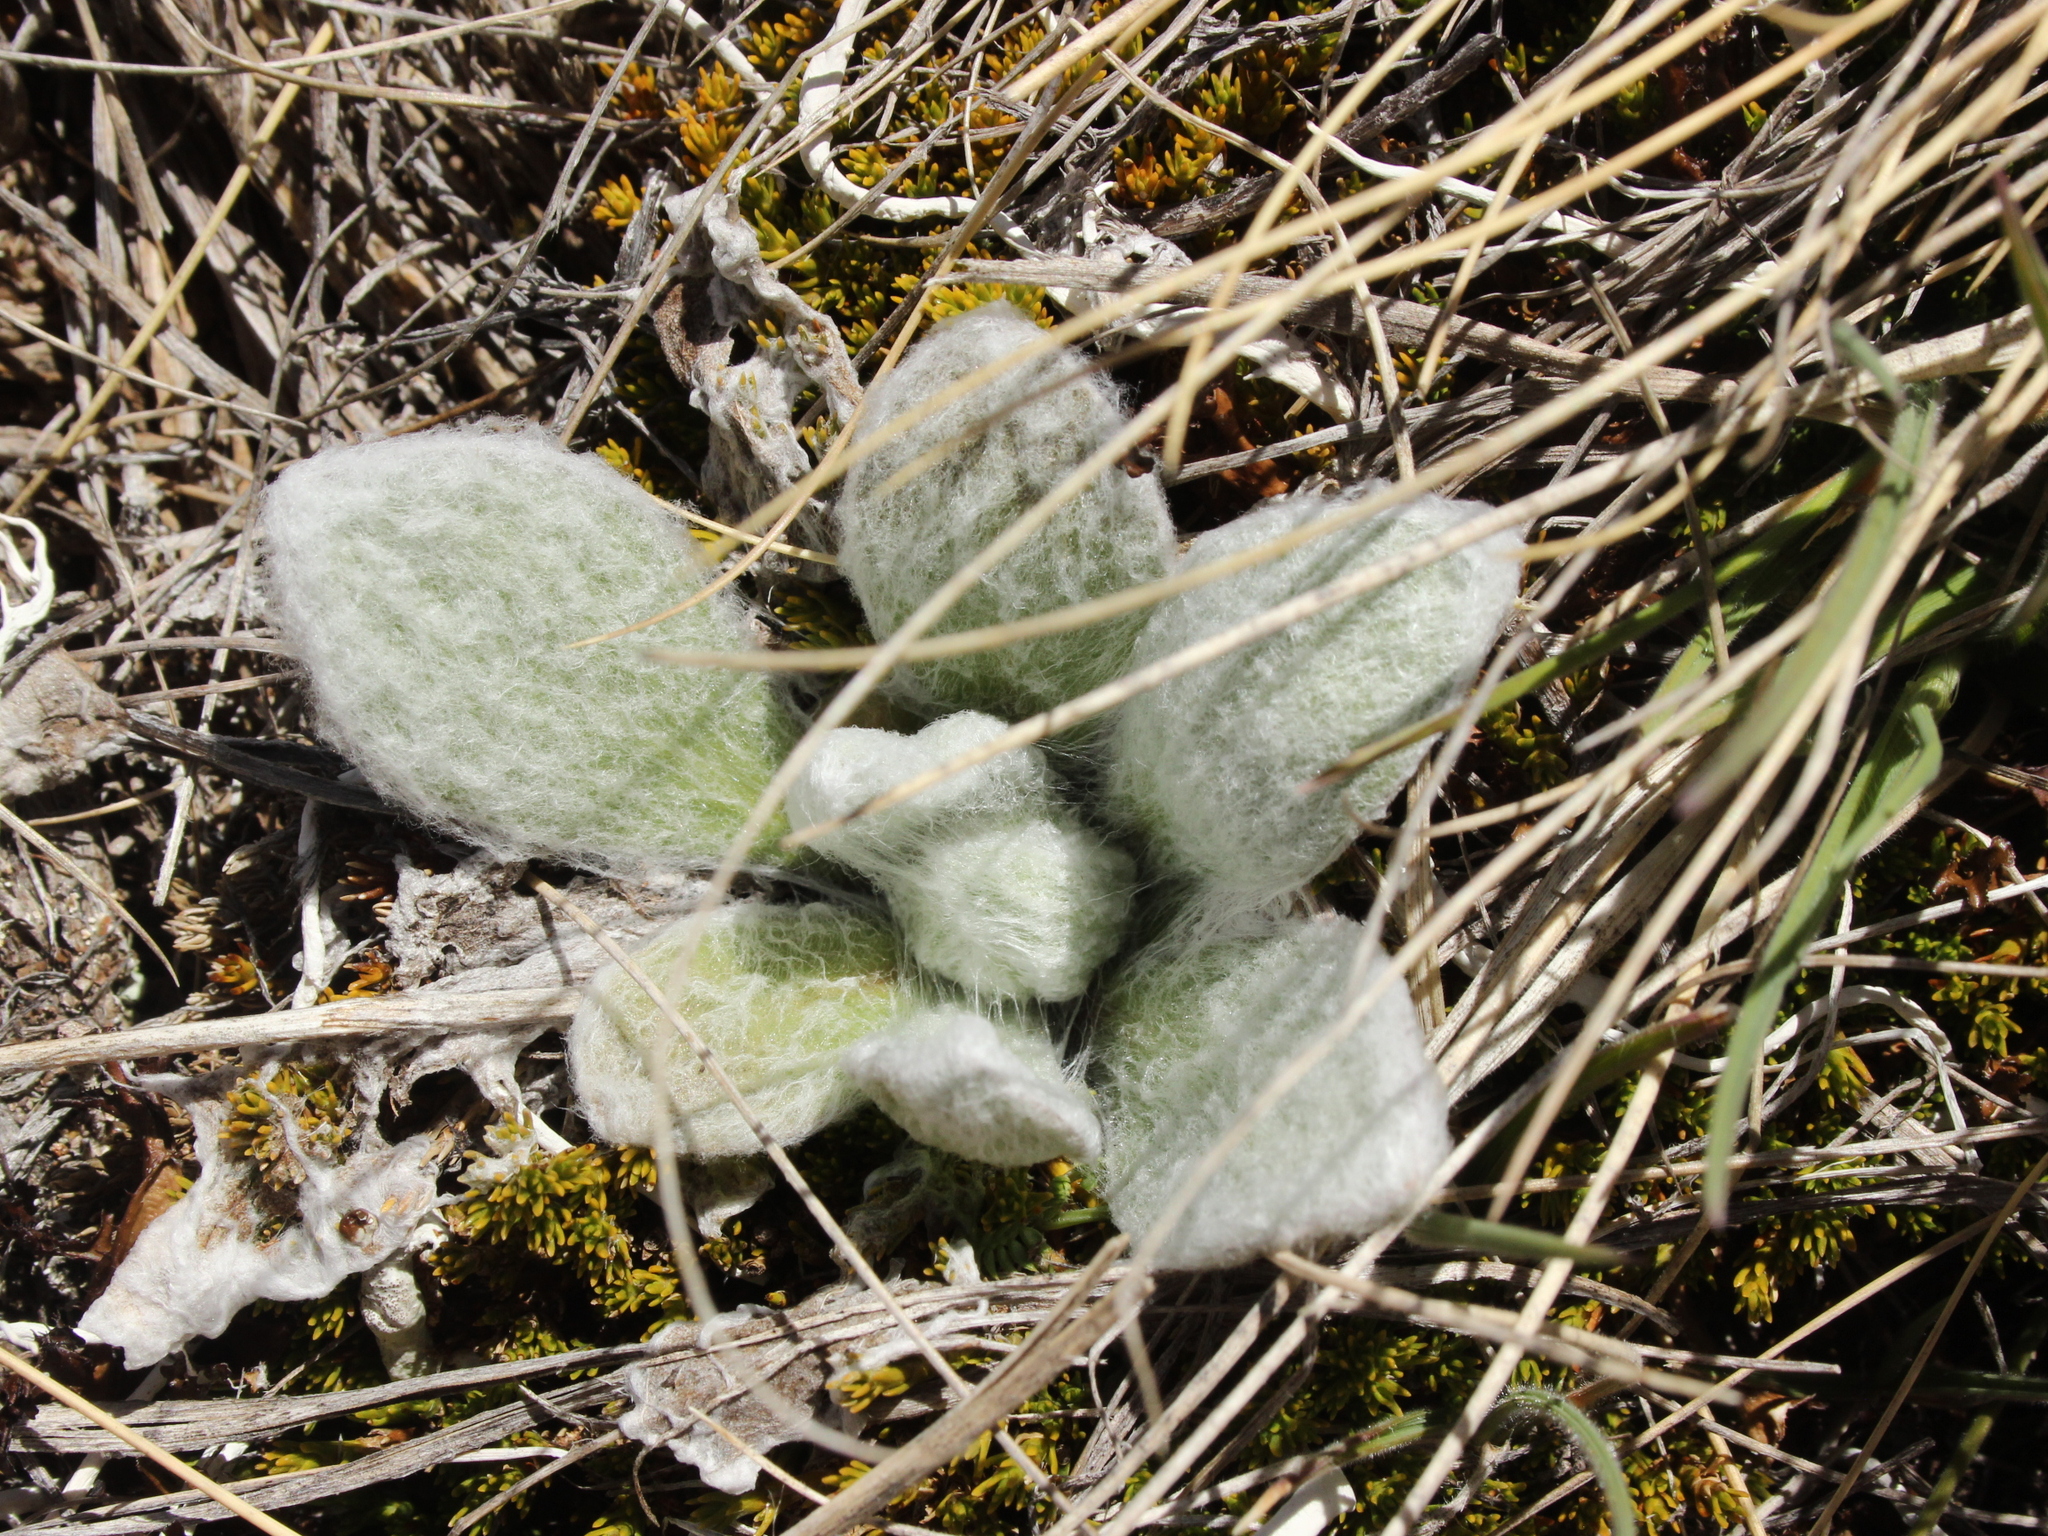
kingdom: Plantae
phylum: Tracheophyta
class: Magnoliopsida
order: Asterales
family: Asteraceae
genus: Craspedia
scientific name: Craspedia lanata
